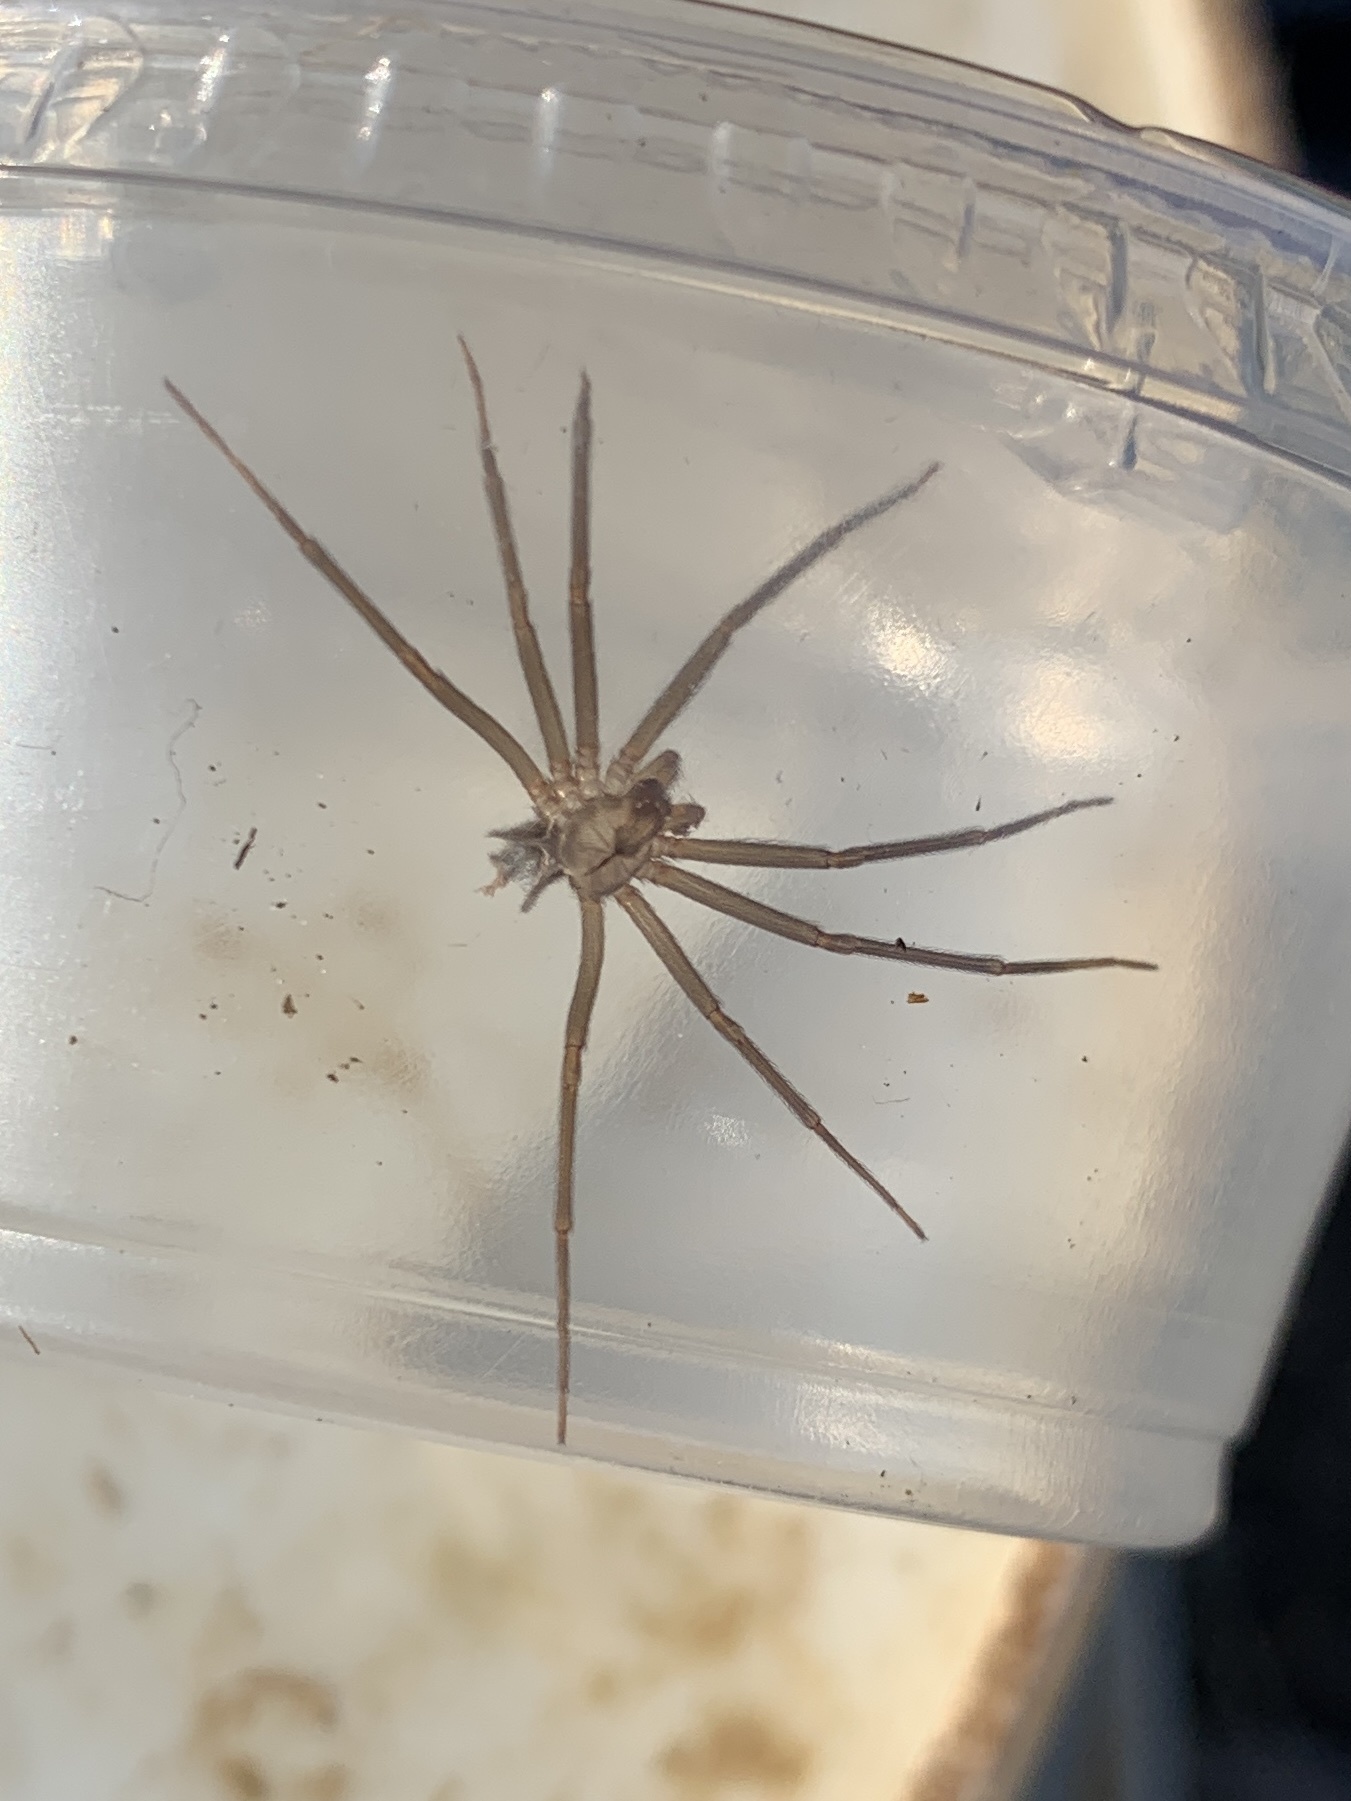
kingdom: Animalia
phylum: Arthropoda
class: Arachnida
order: Araneae
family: Sicariidae
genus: Loxosceles
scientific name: Loxosceles reclusa
